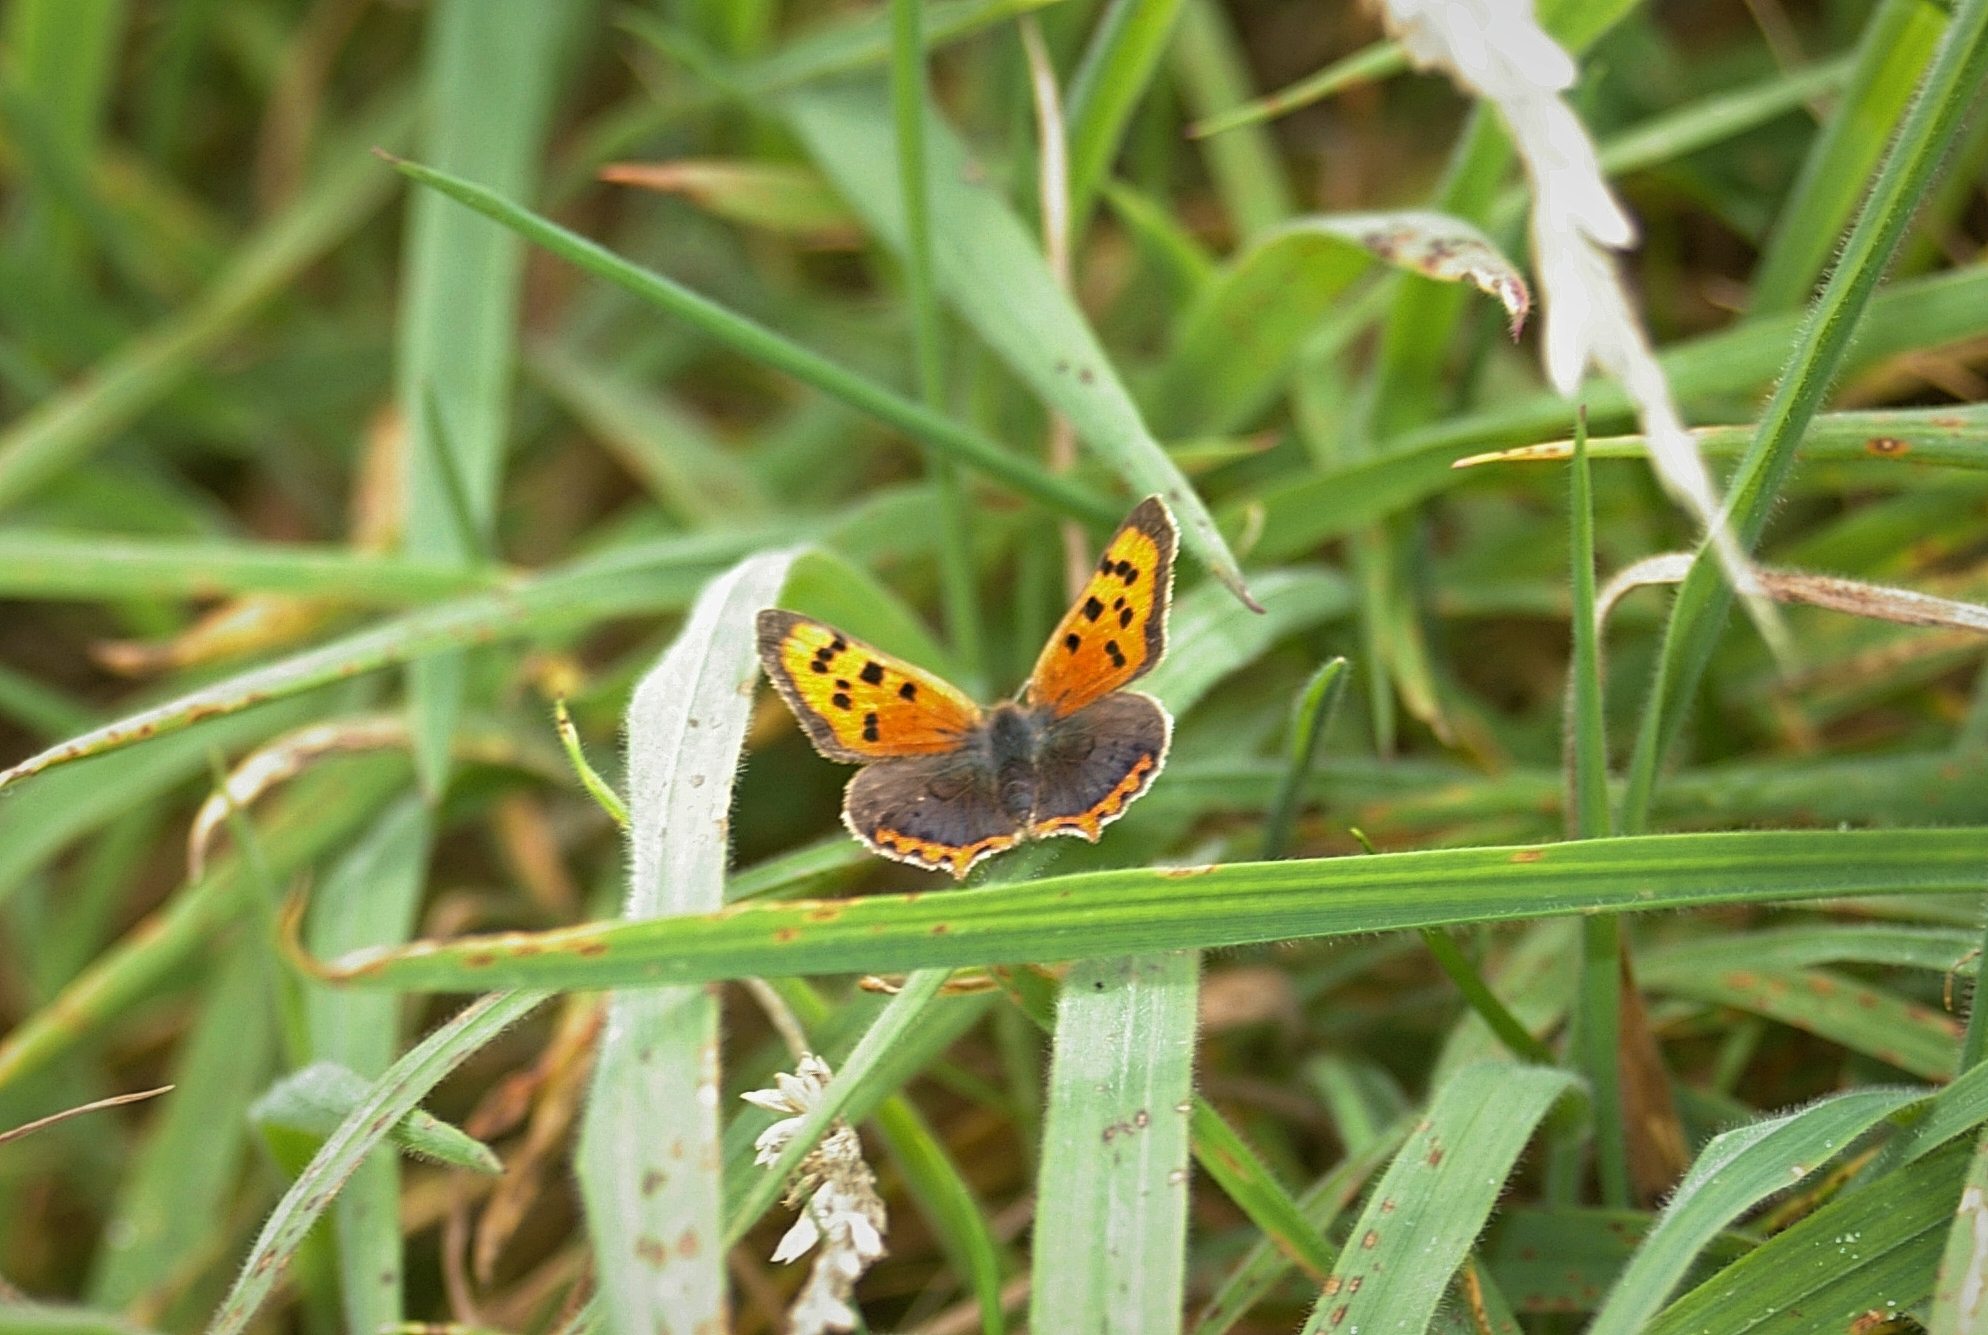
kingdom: Animalia
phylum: Arthropoda
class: Insecta
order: Lepidoptera
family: Lycaenidae
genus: Lycaena
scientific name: Lycaena phlaeas
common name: Small copper
